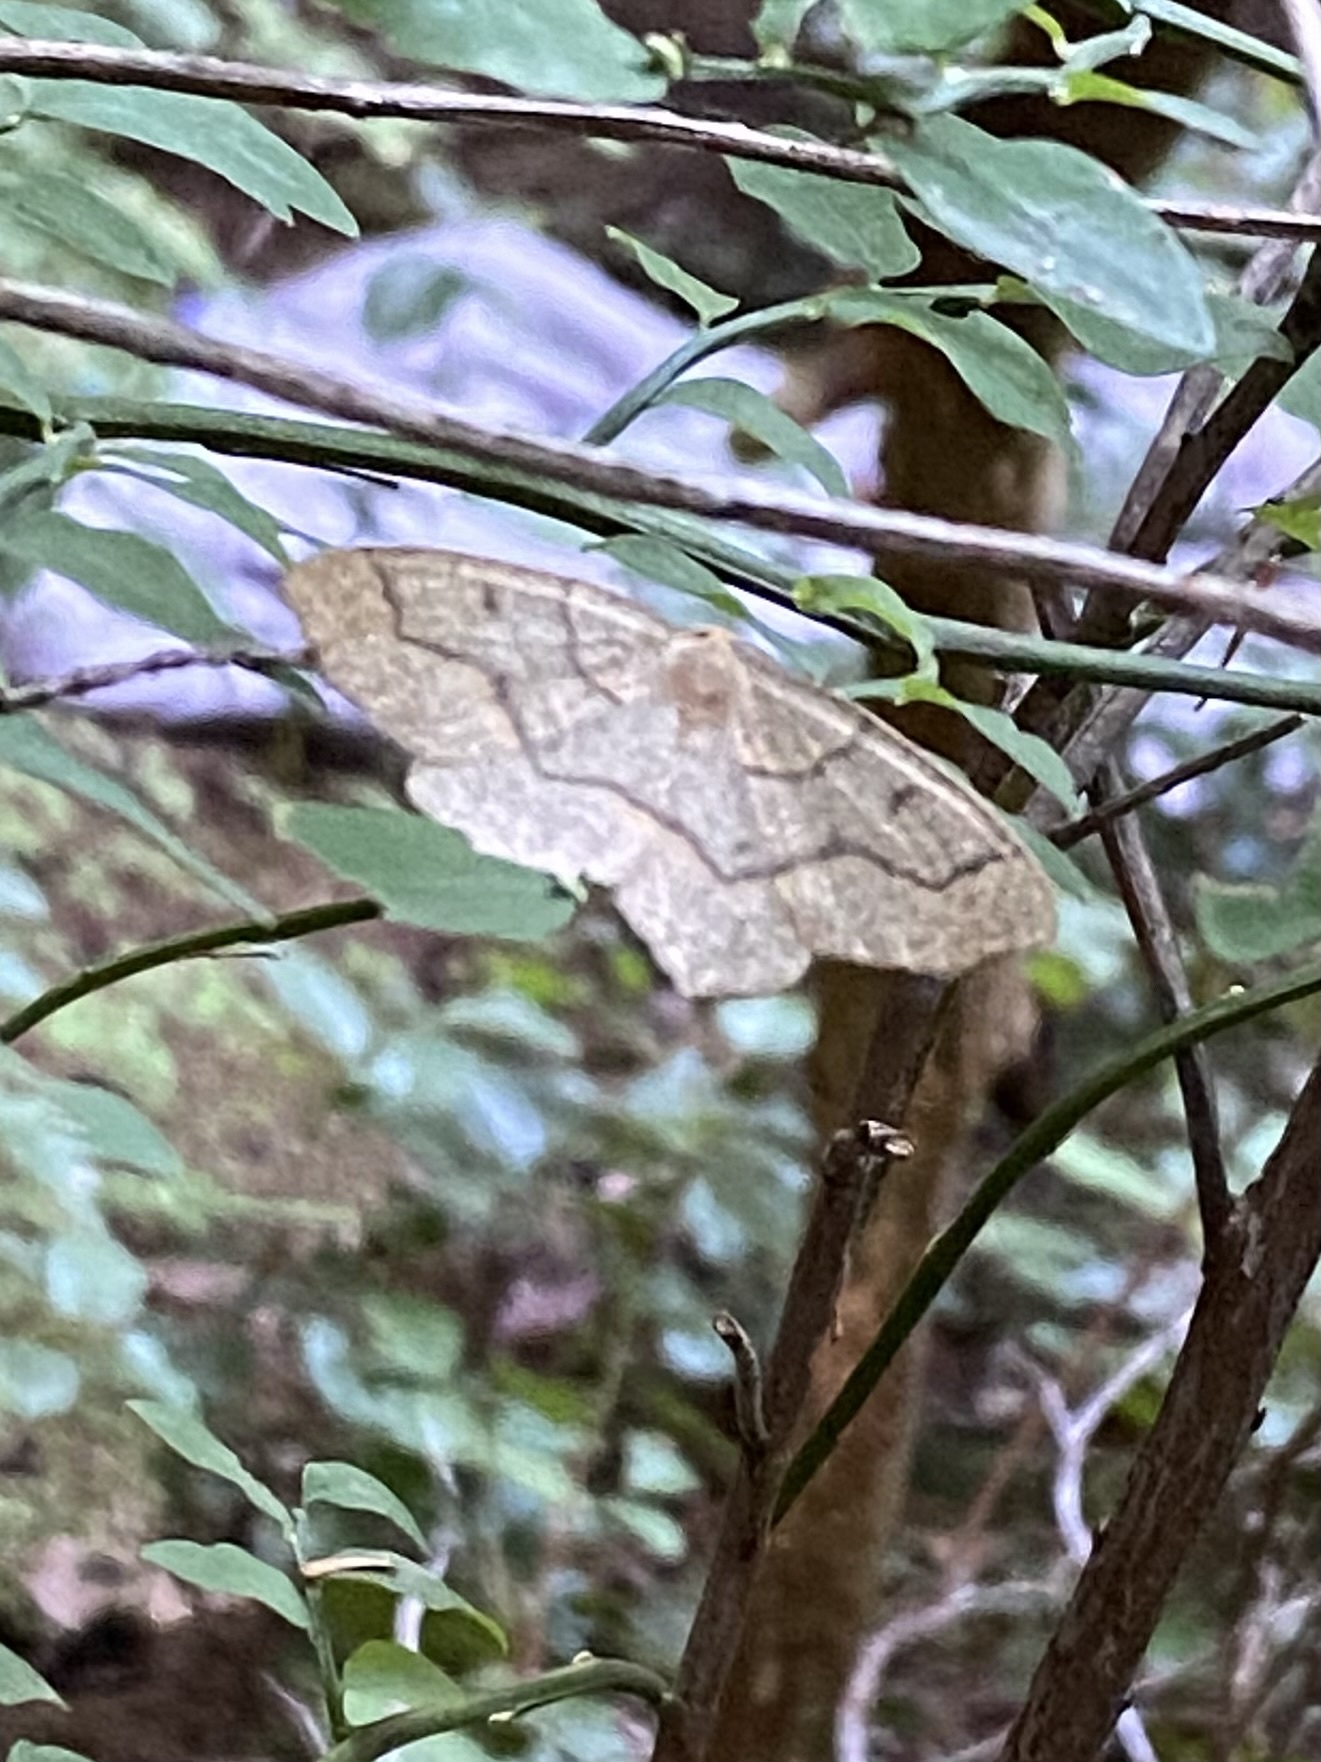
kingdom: Animalia
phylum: Arthropoda
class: Insecta
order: Lepidoptera
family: Geometridae
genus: Lambdina
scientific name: Lambdina fiscellaria
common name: Hemlock looper
